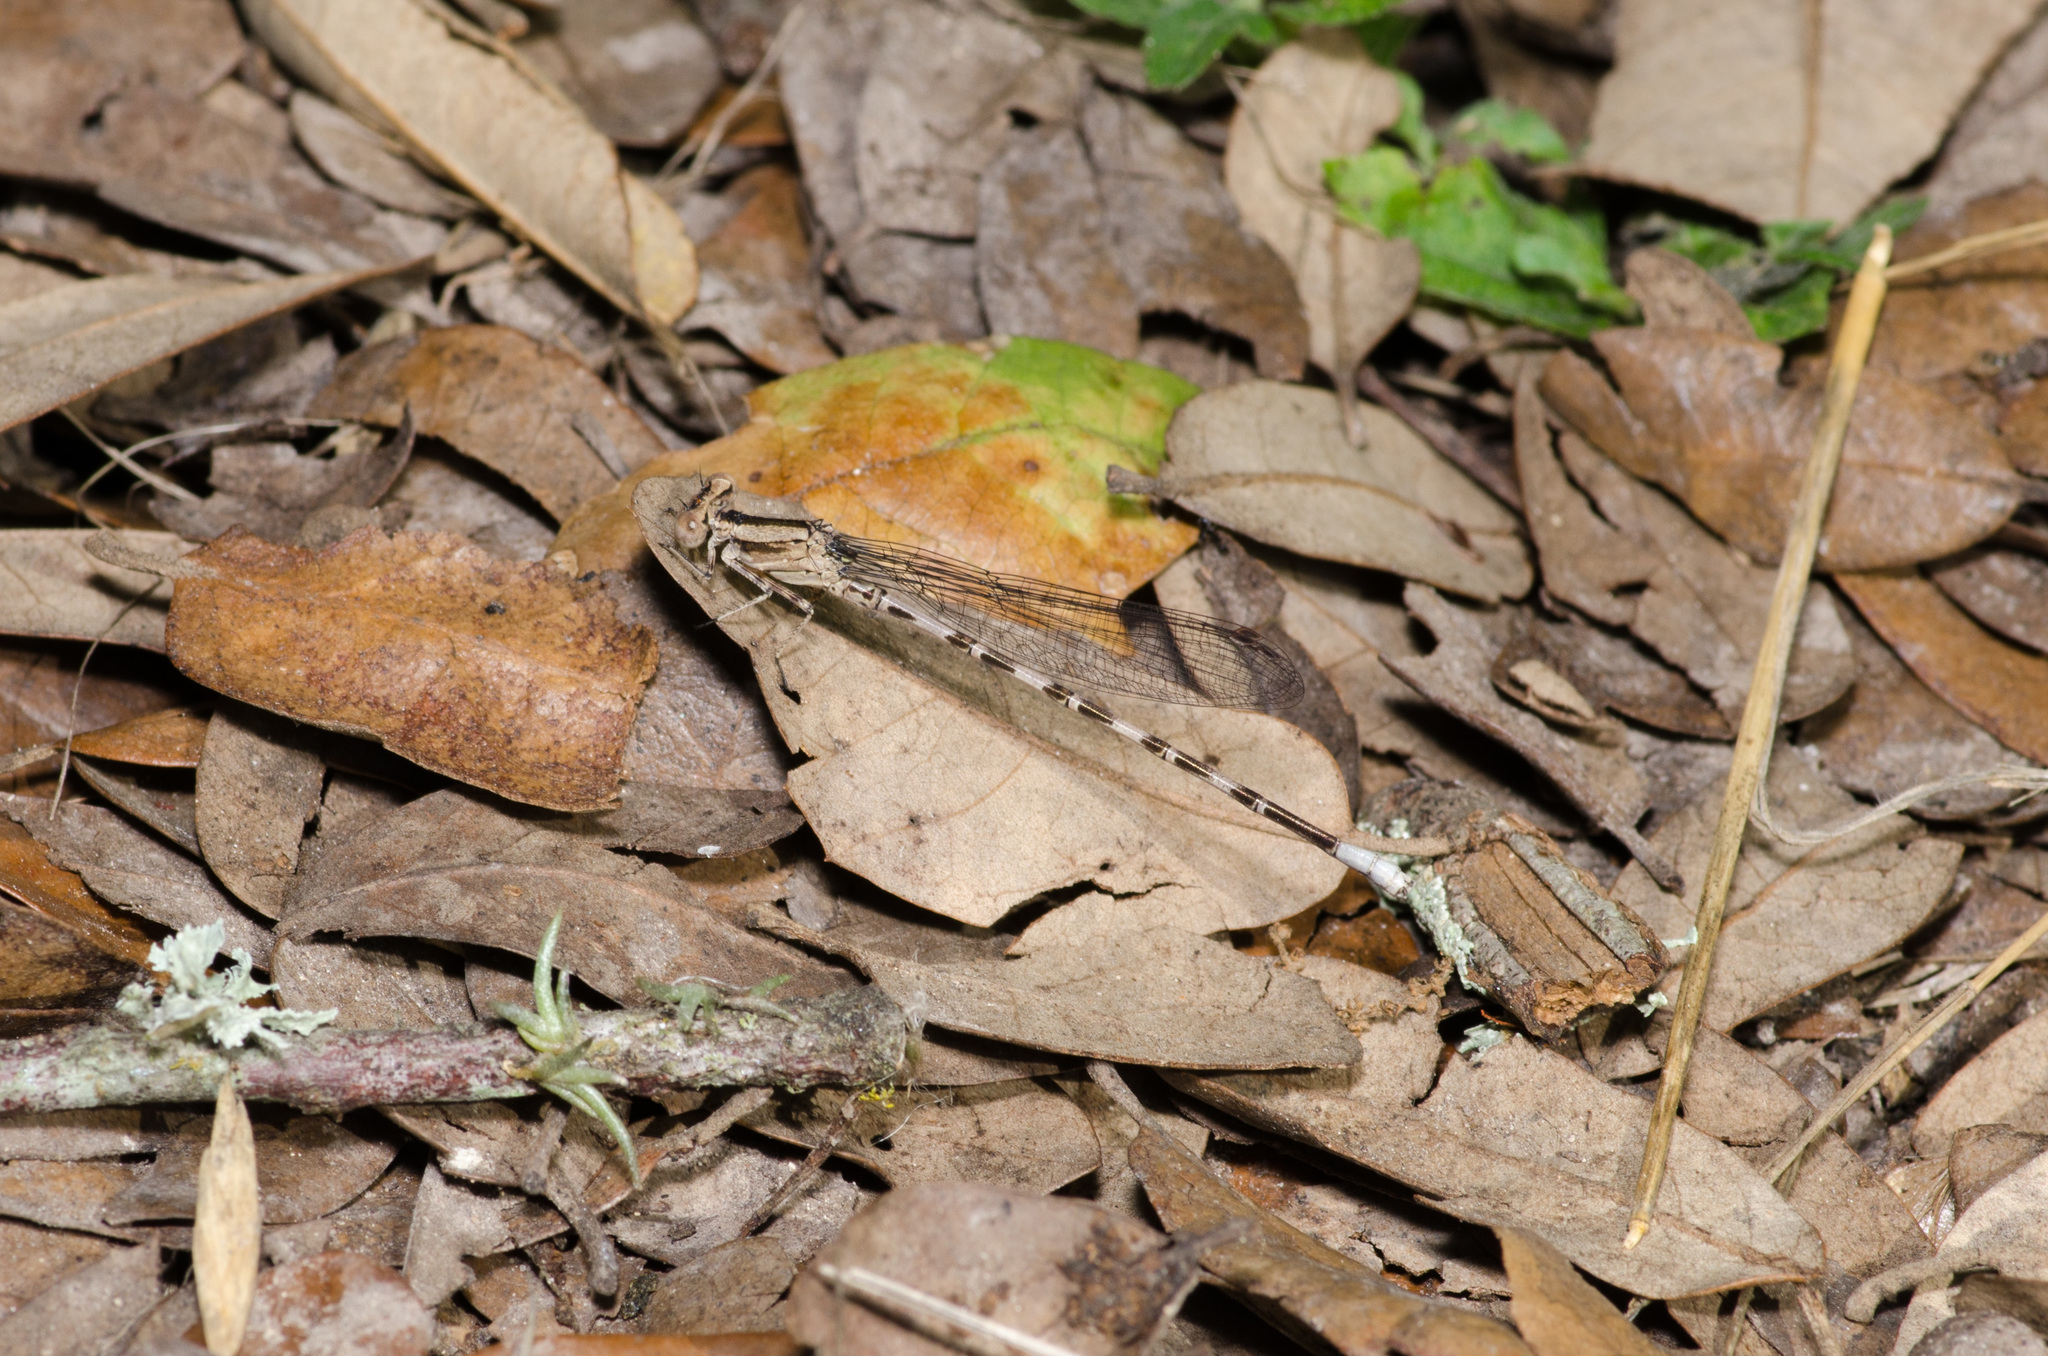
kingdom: Animalia
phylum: Arthropoda
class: Insecta
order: Odonata
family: Coenagrionidae
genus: Argia
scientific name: Argia immunda
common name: Kiowa dancer
